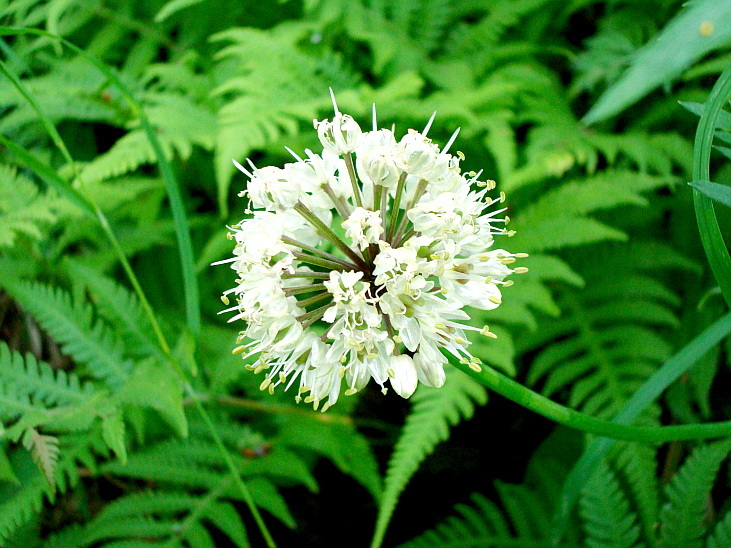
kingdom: Plantae
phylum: Tracheophyta
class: Liliopsida
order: Asparagales
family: Amaryllidaceae
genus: Allium
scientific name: Allium ochotense
